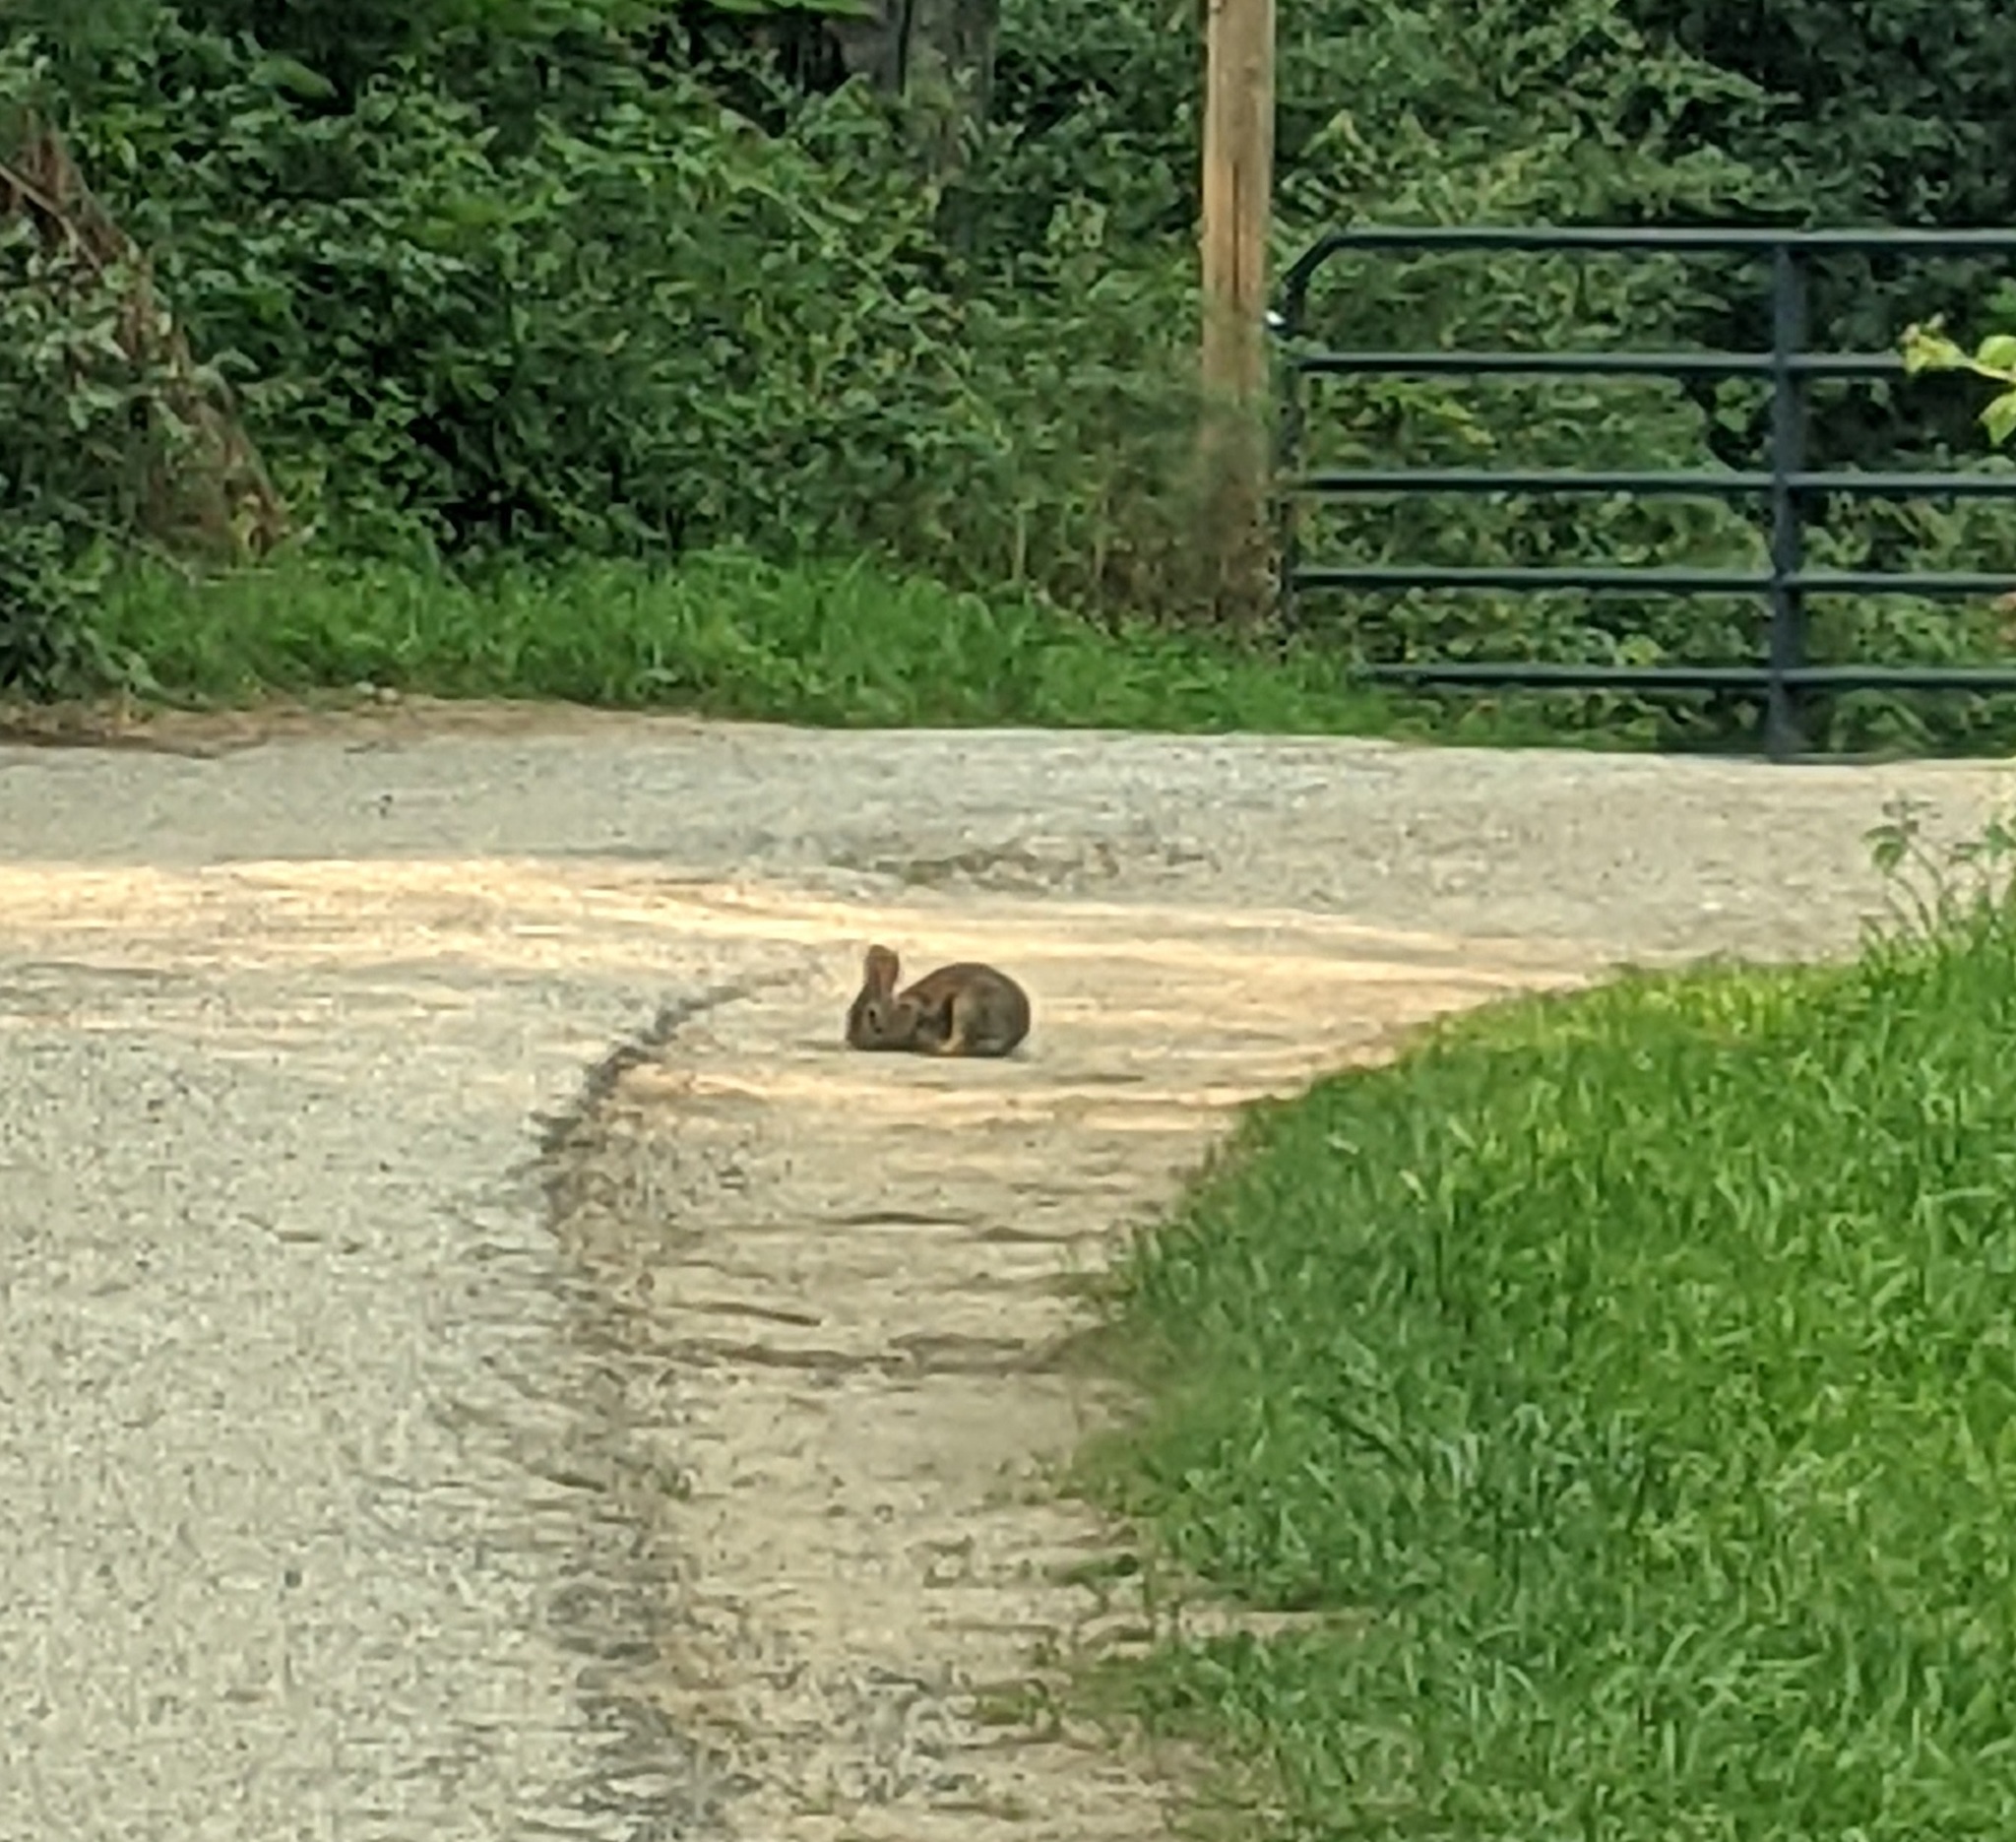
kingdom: Animalia
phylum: Chordata
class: Mammalia
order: Lagomorpha
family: Leporidae
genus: Sylvilagus
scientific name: Sylvilagus floridanus
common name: Eastern cottontail
